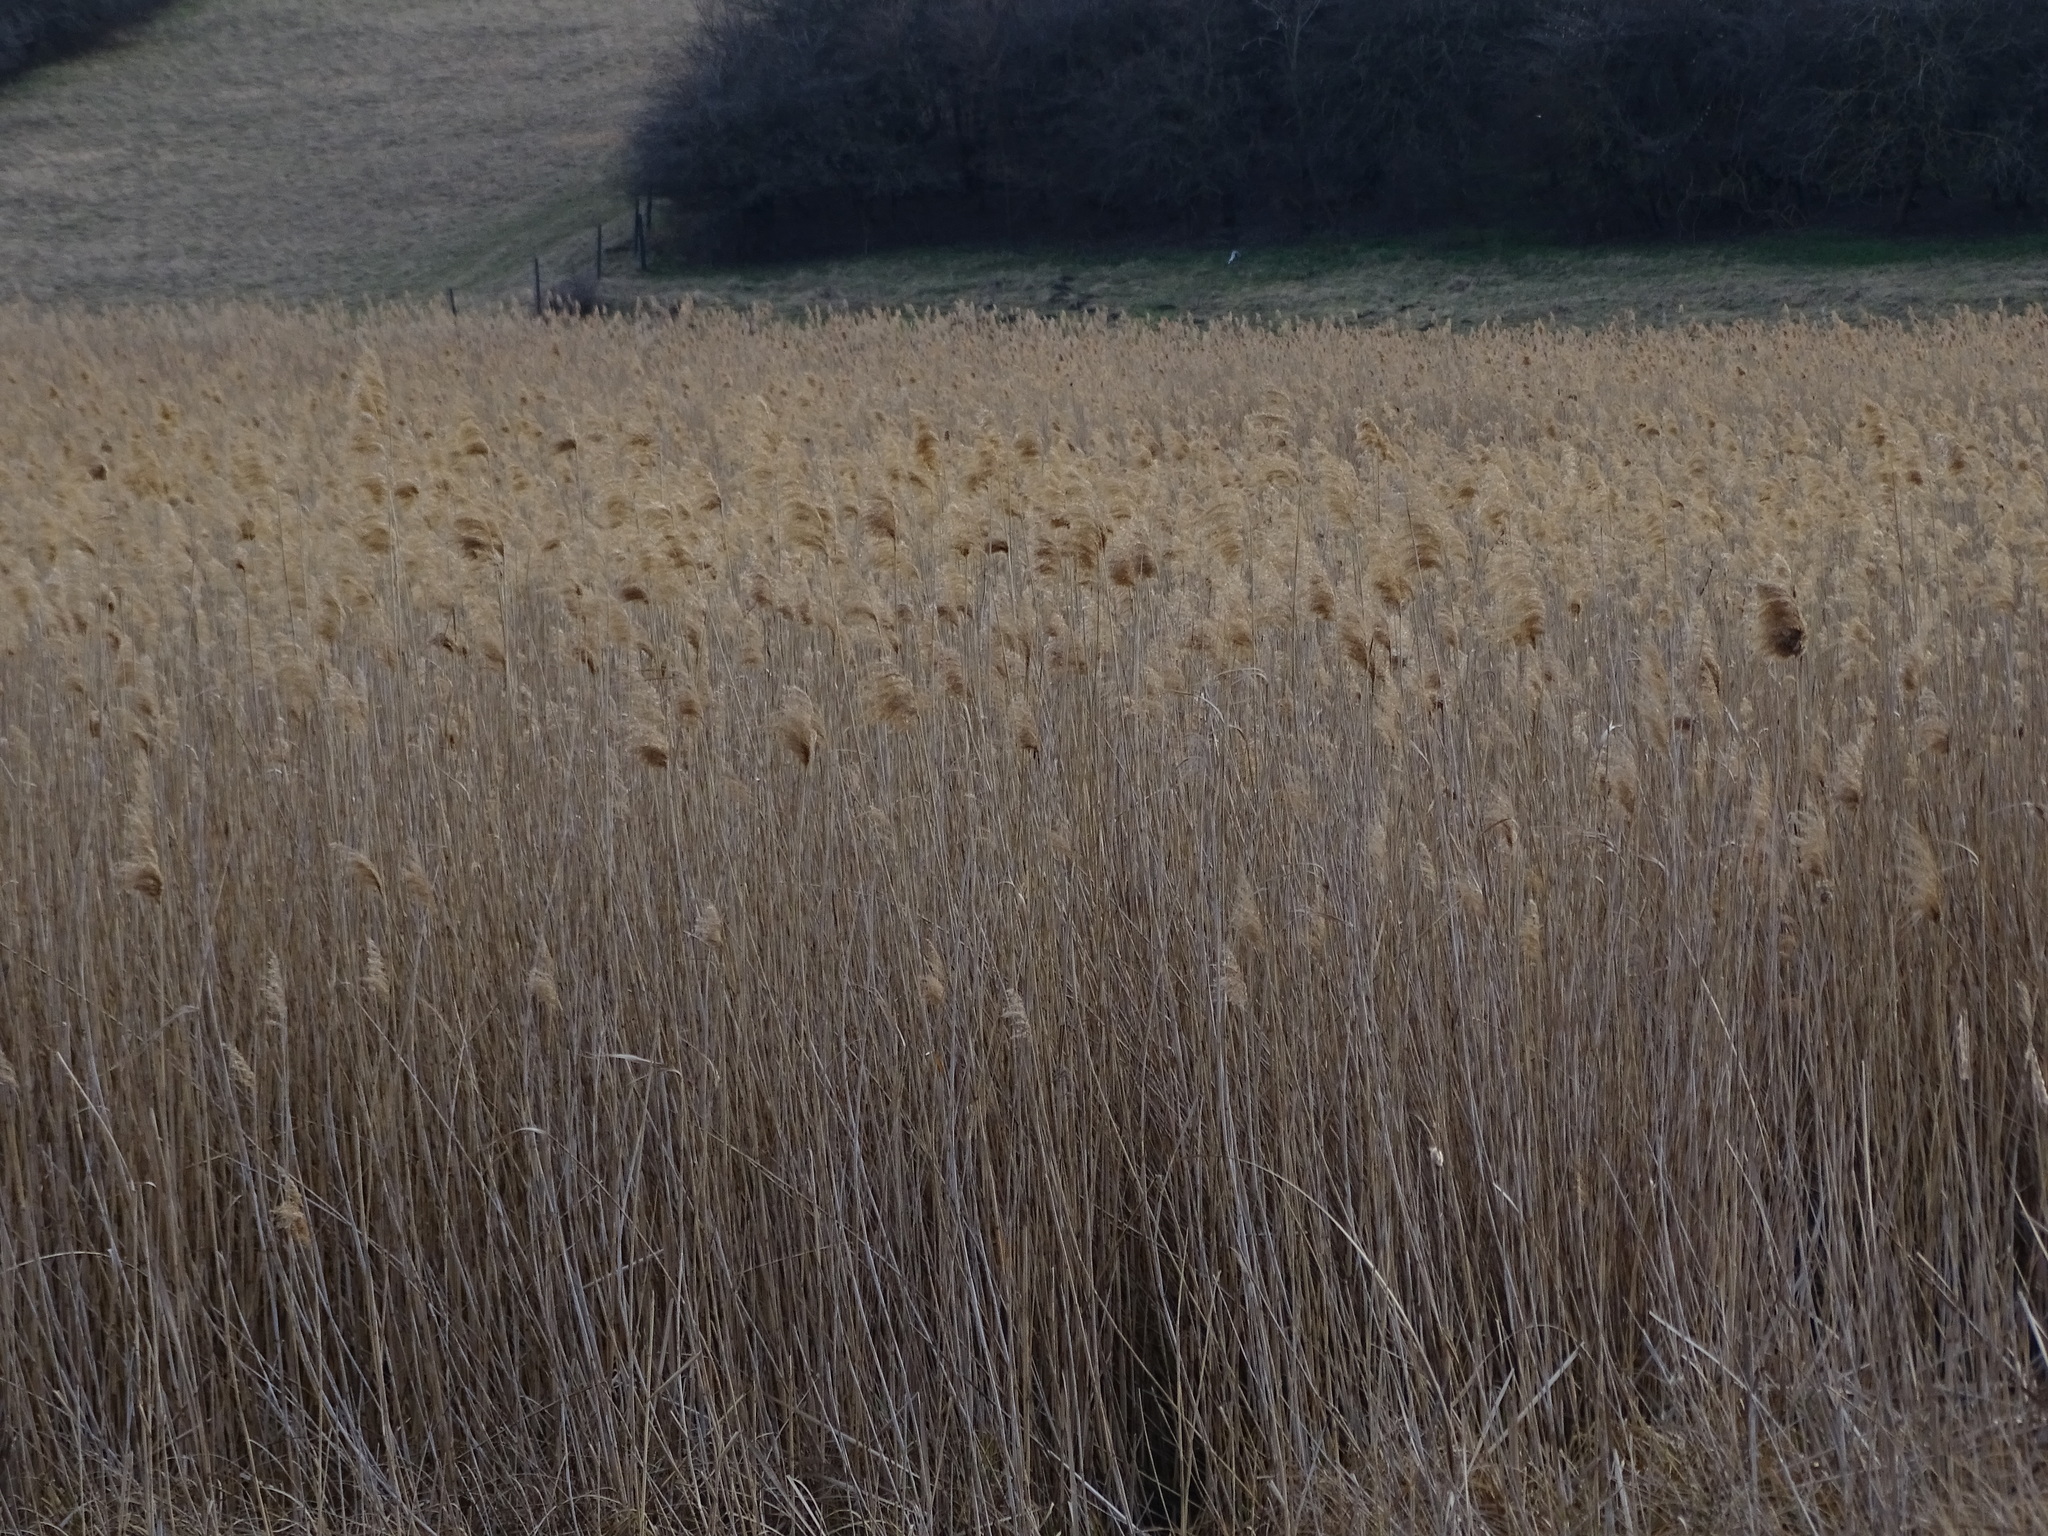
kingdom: Plantae
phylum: Tracheophyta
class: Liliopsida
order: Poales
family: Poaceae
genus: Phragmites
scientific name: Phragmites australis
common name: Common reed
